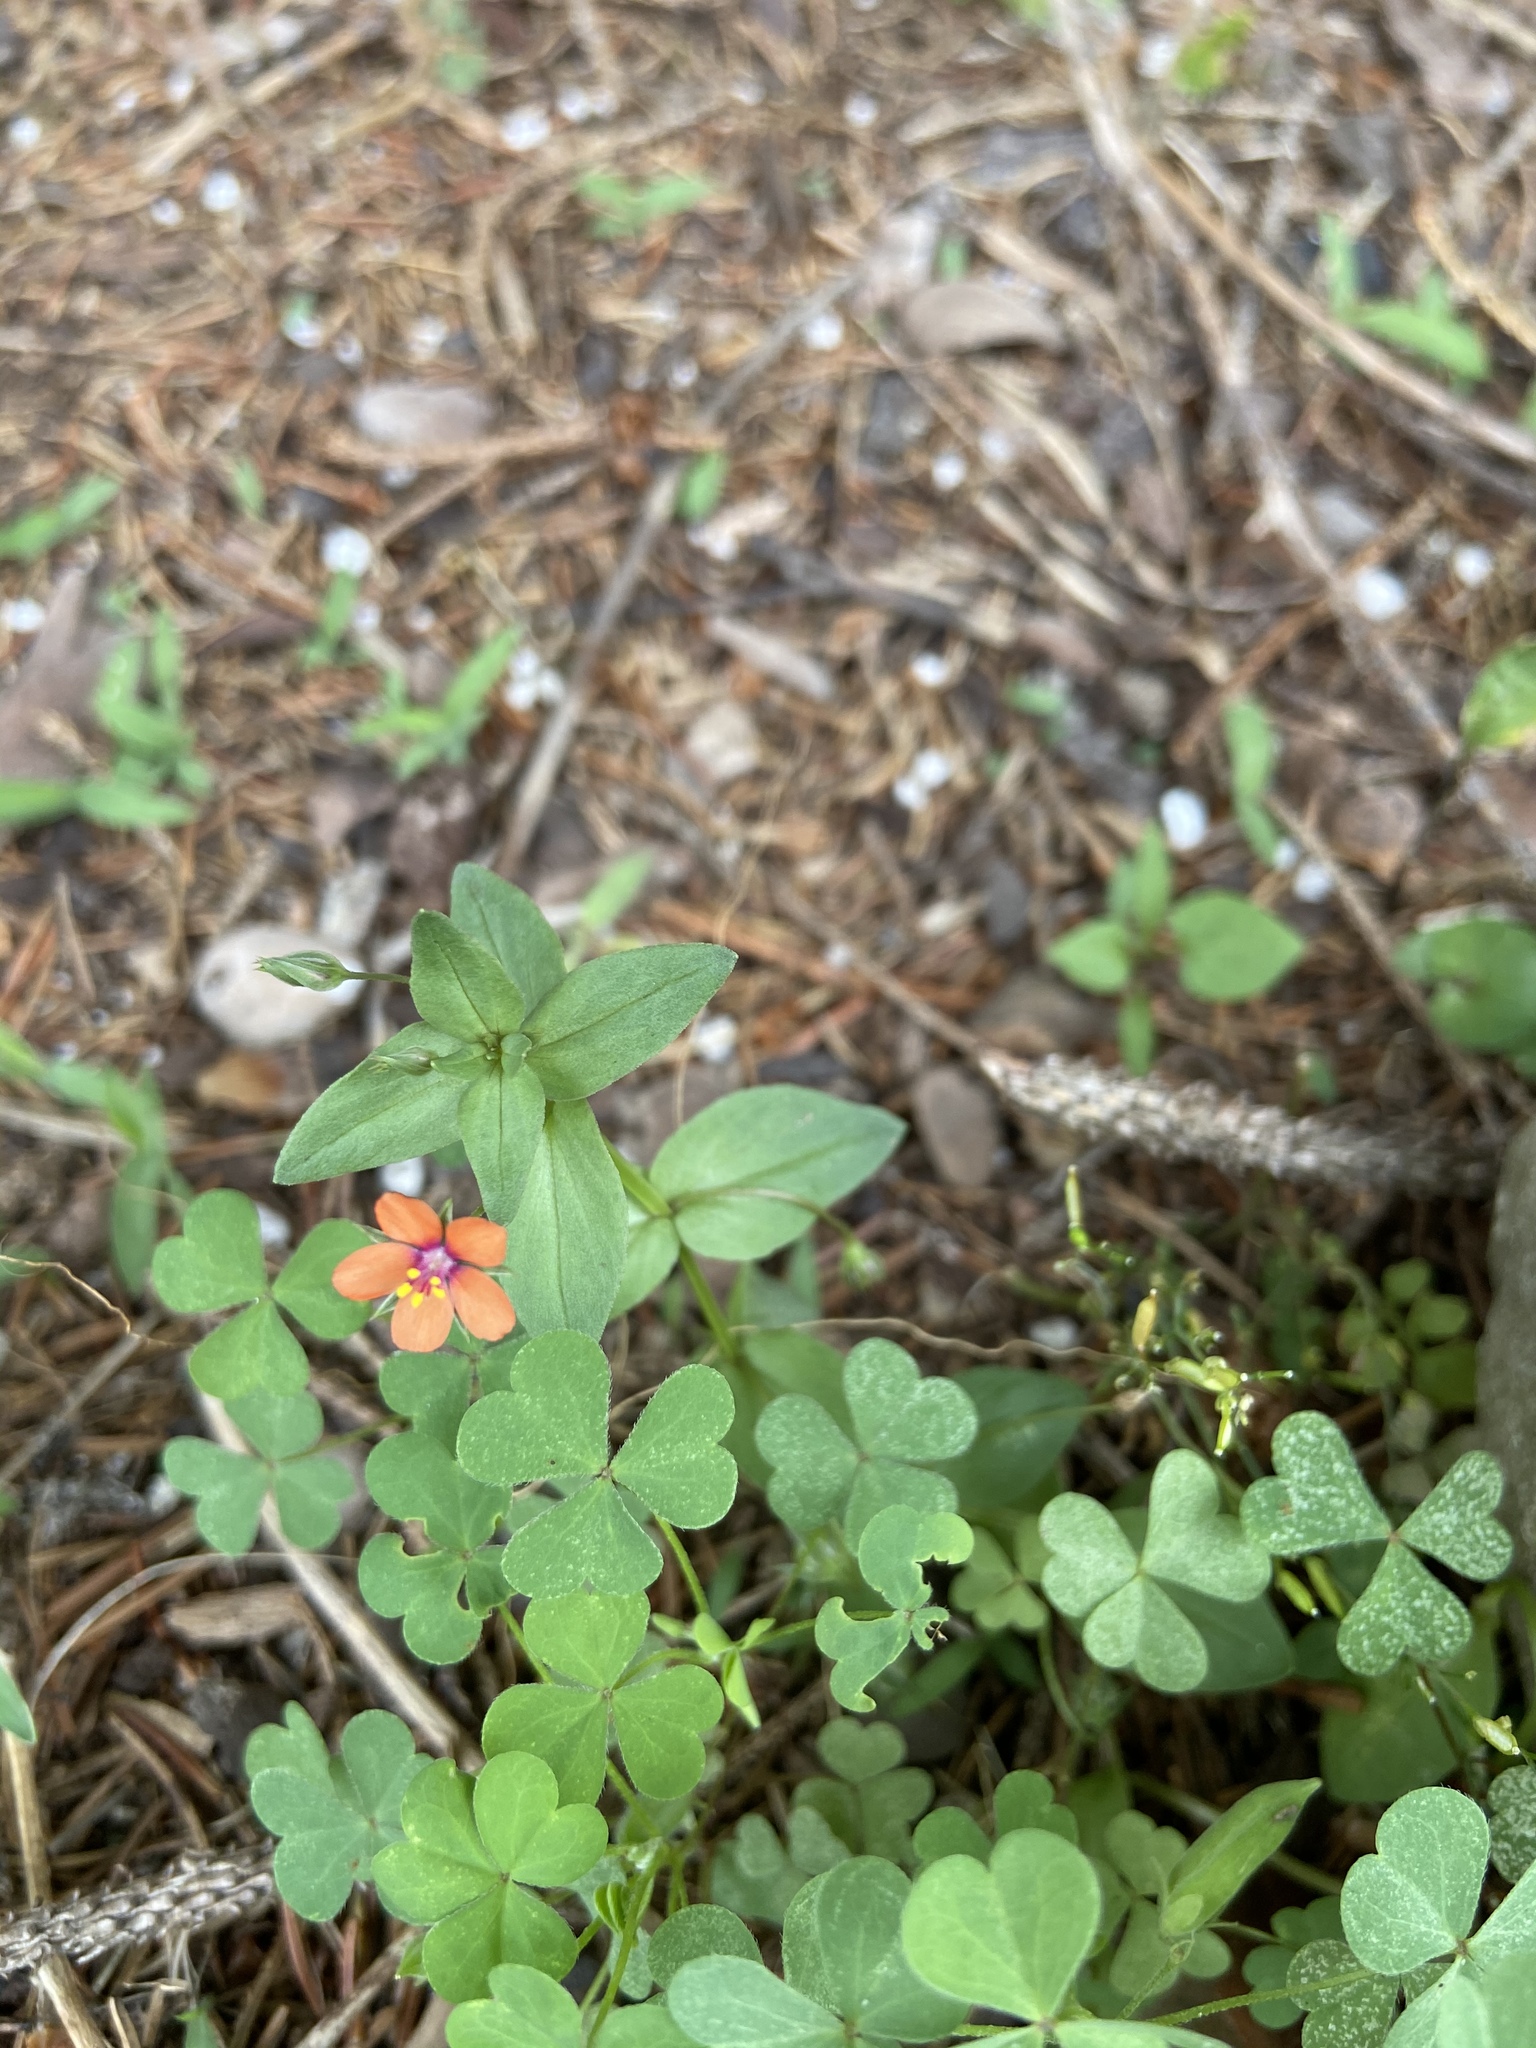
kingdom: Plantae
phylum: Tracheophyta
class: Magnoliopsida
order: Ericales
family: Primulaceae
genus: Lysimachia
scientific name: Lysimachia arvensis
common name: Scarlet pimpernel
